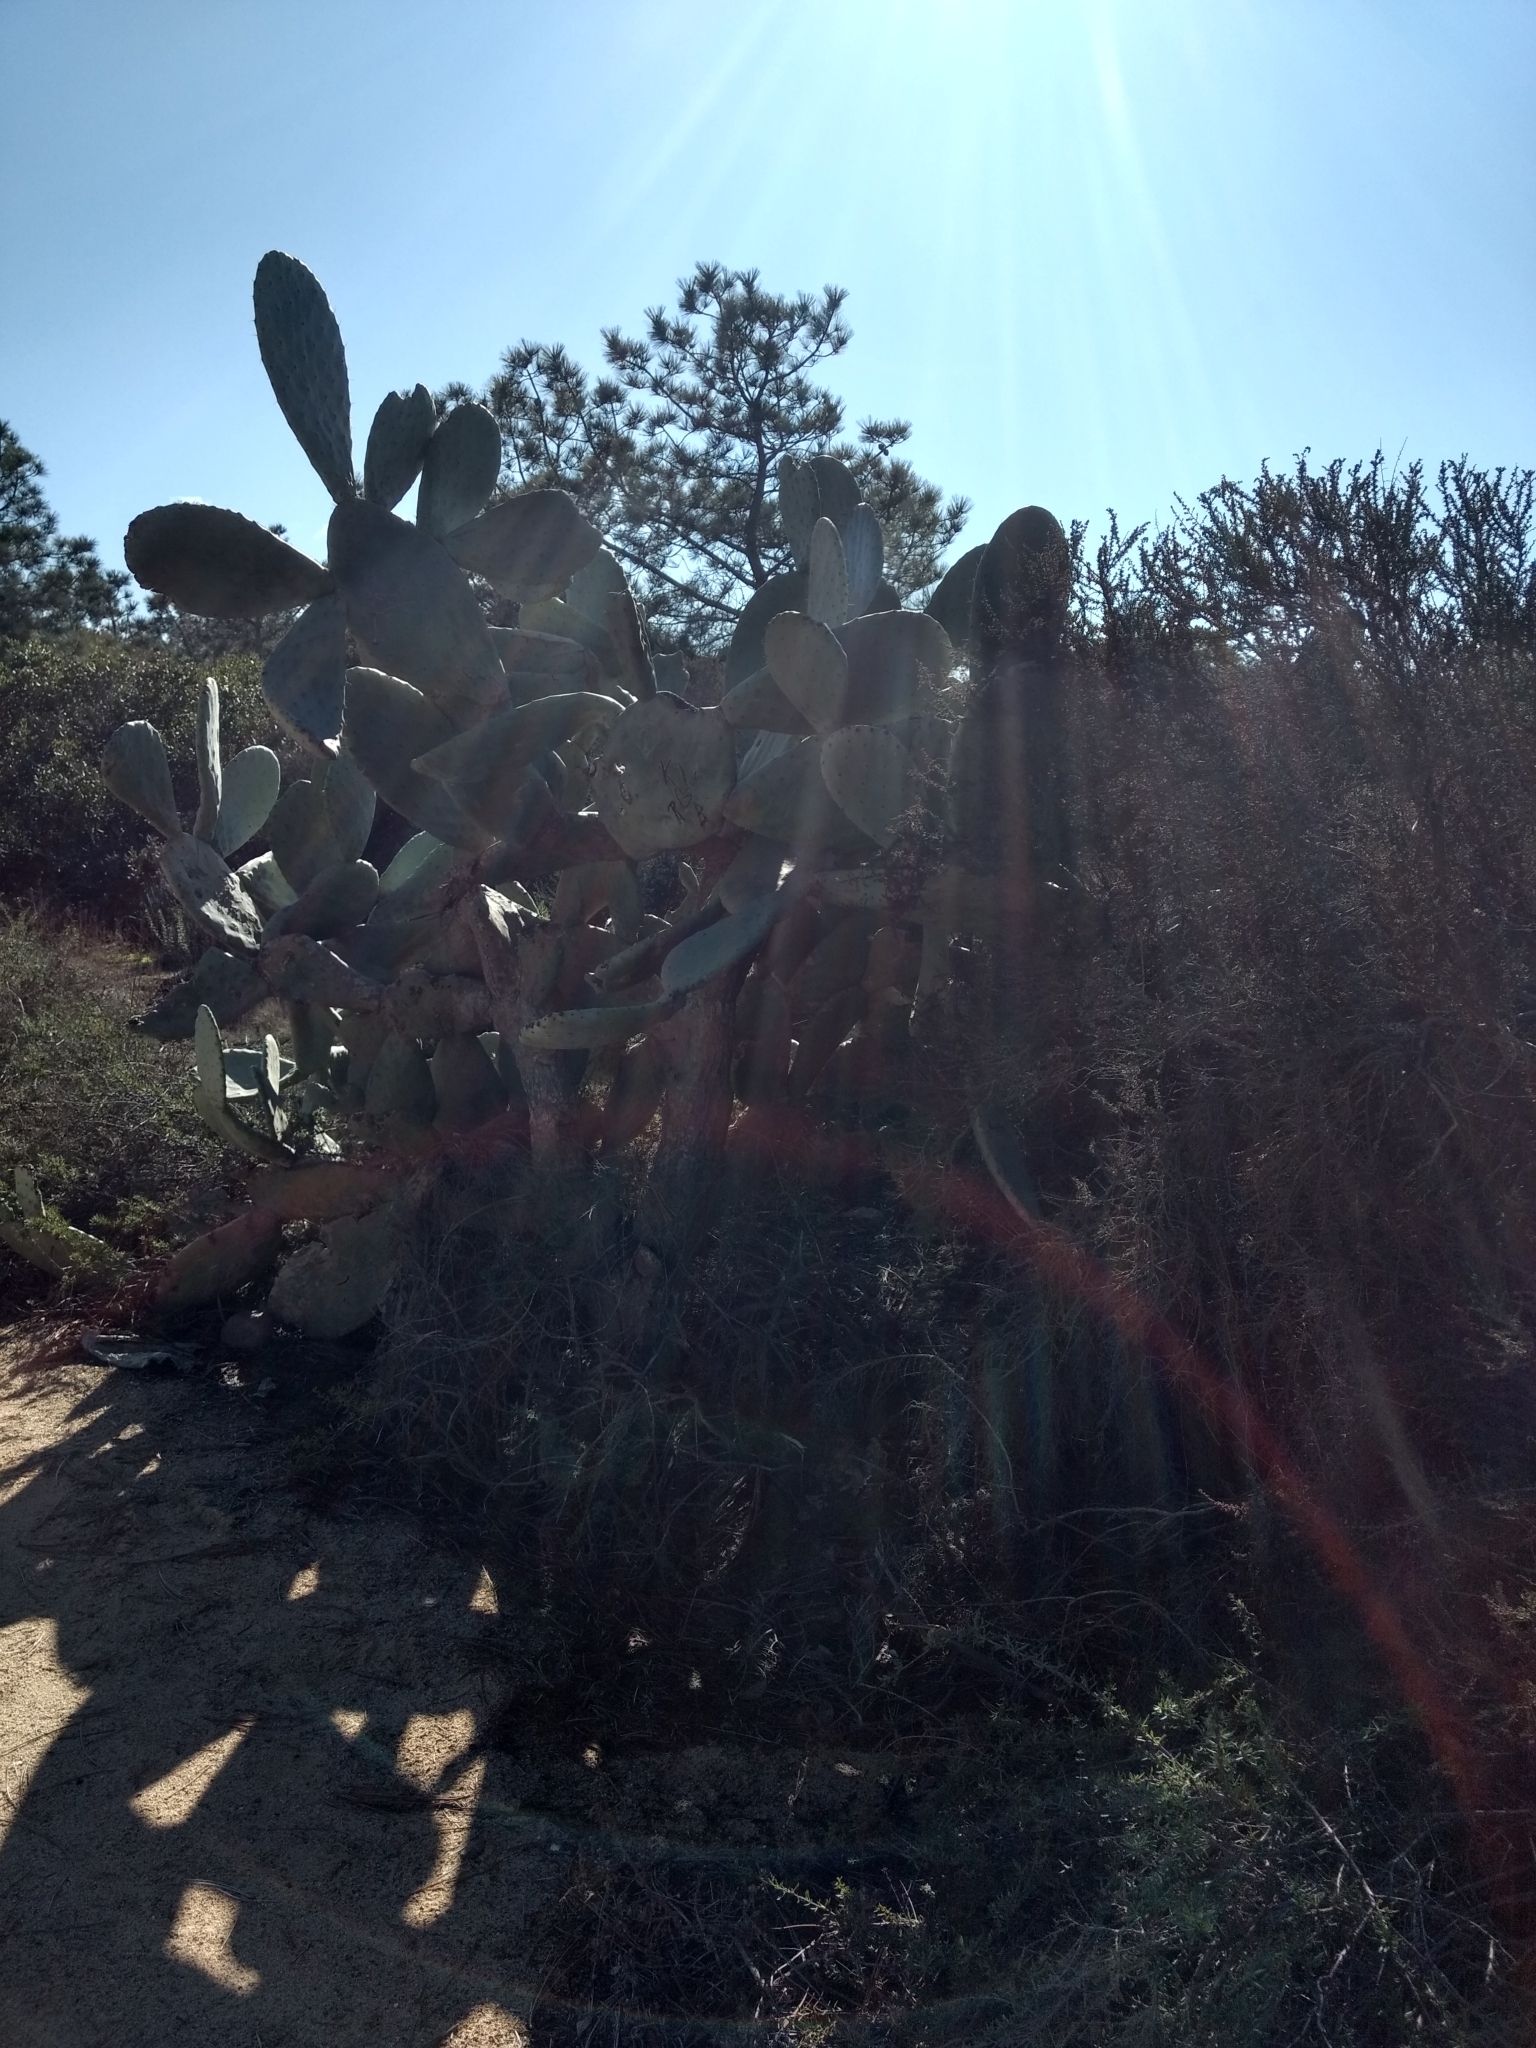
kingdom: Plantae
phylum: Tracheophyta
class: Magnoliopsida
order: Caryophyllales
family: Cactaceae
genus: Opuntia
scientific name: Opuntia ficus-indica
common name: Barbary fig
